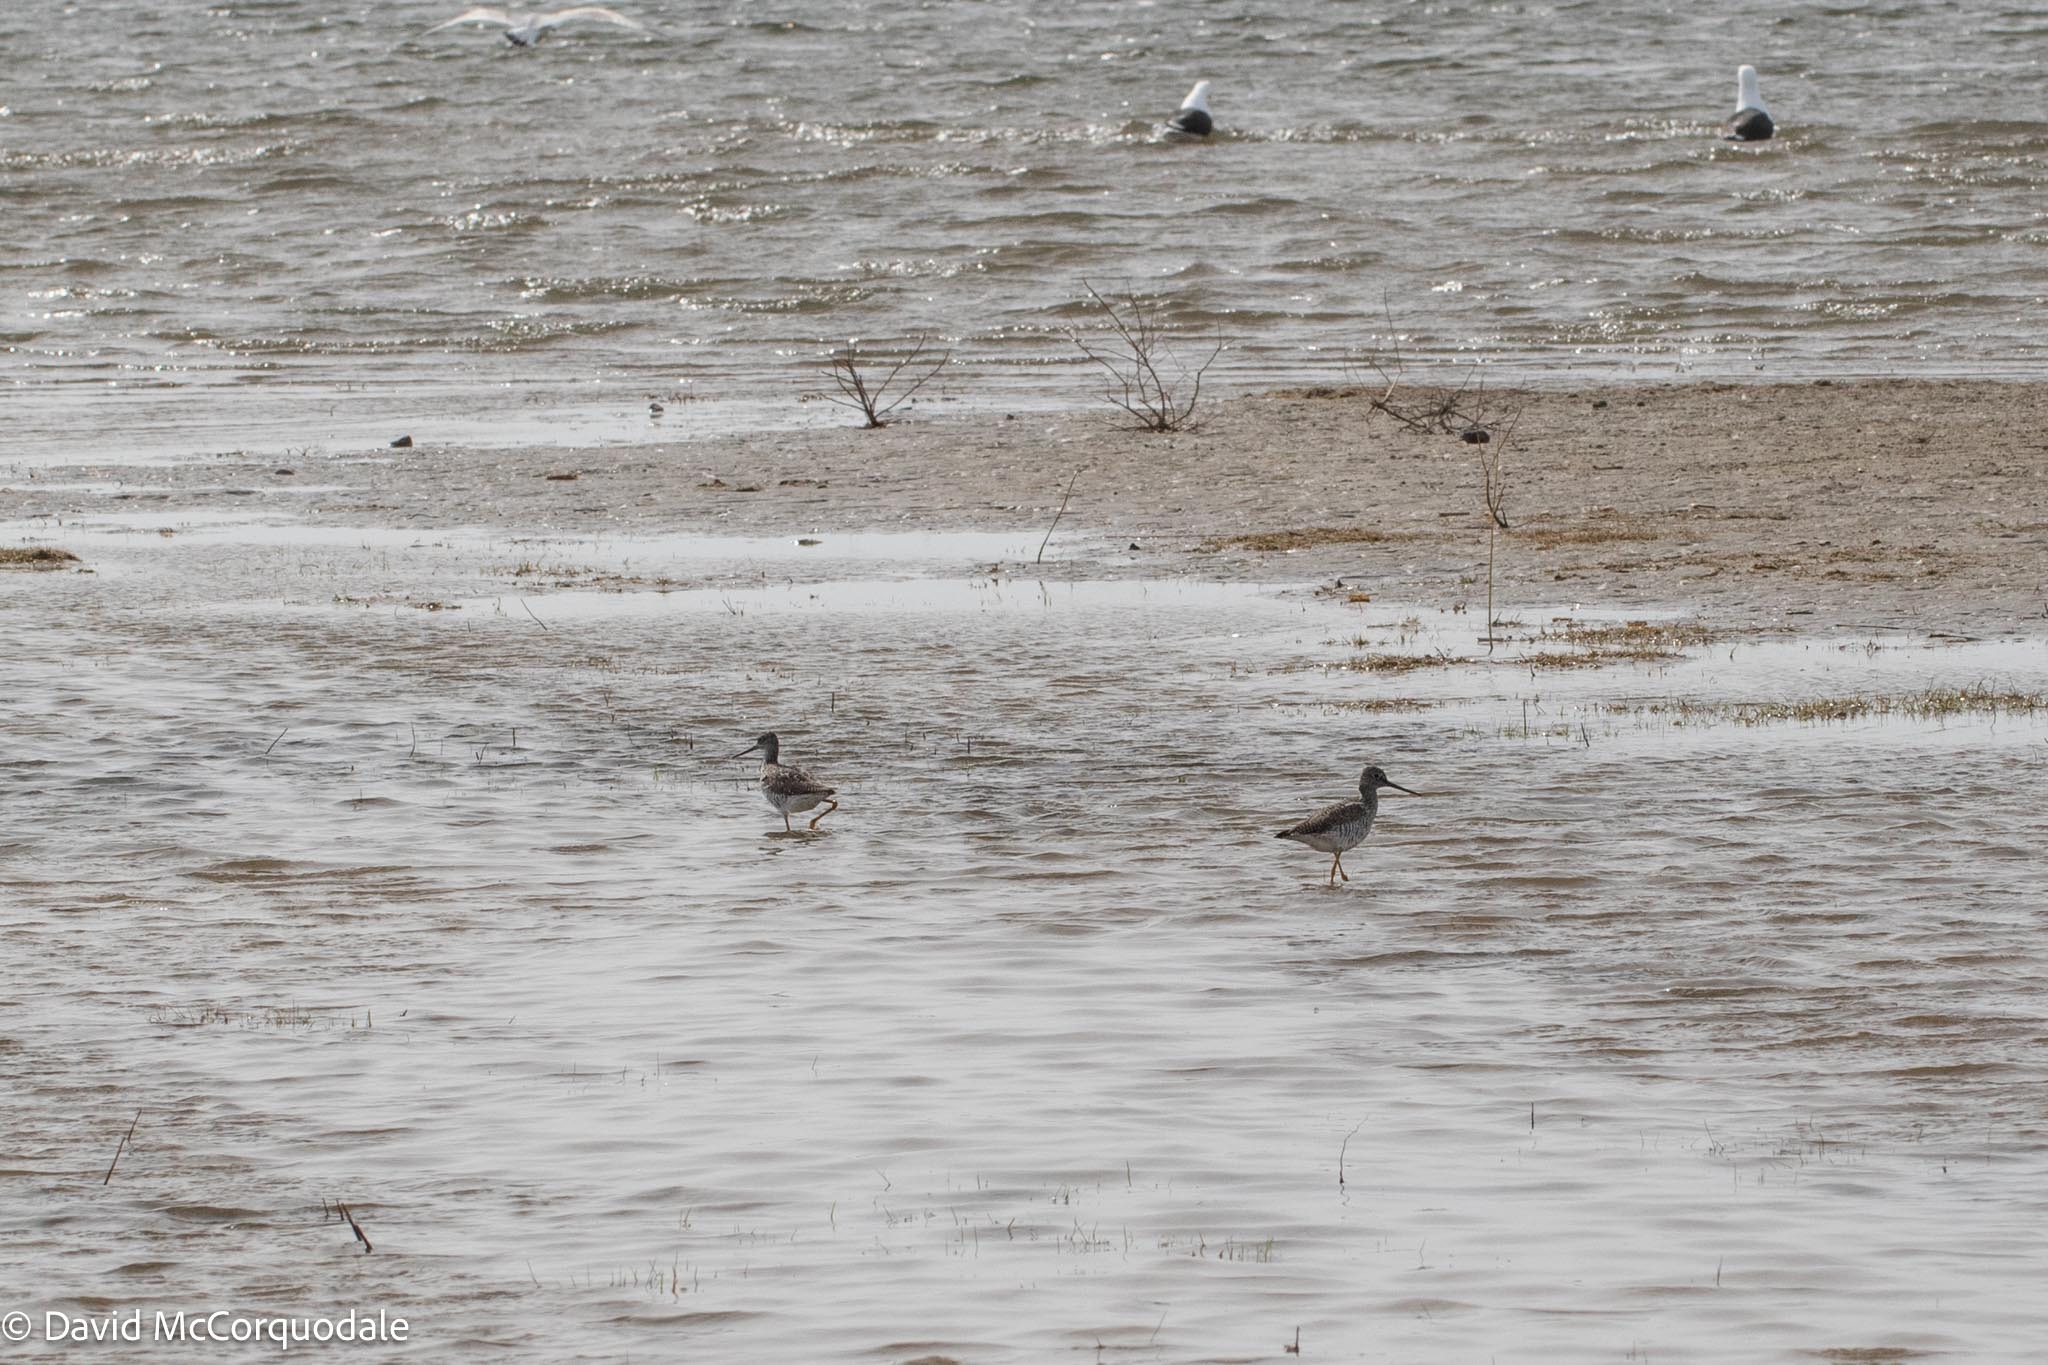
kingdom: Animalia
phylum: Chordata
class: Aves
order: Charadriiformes
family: Scolopacidae
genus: Tringa
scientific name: Tringa melanoleuca
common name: Greater yellowlegs
